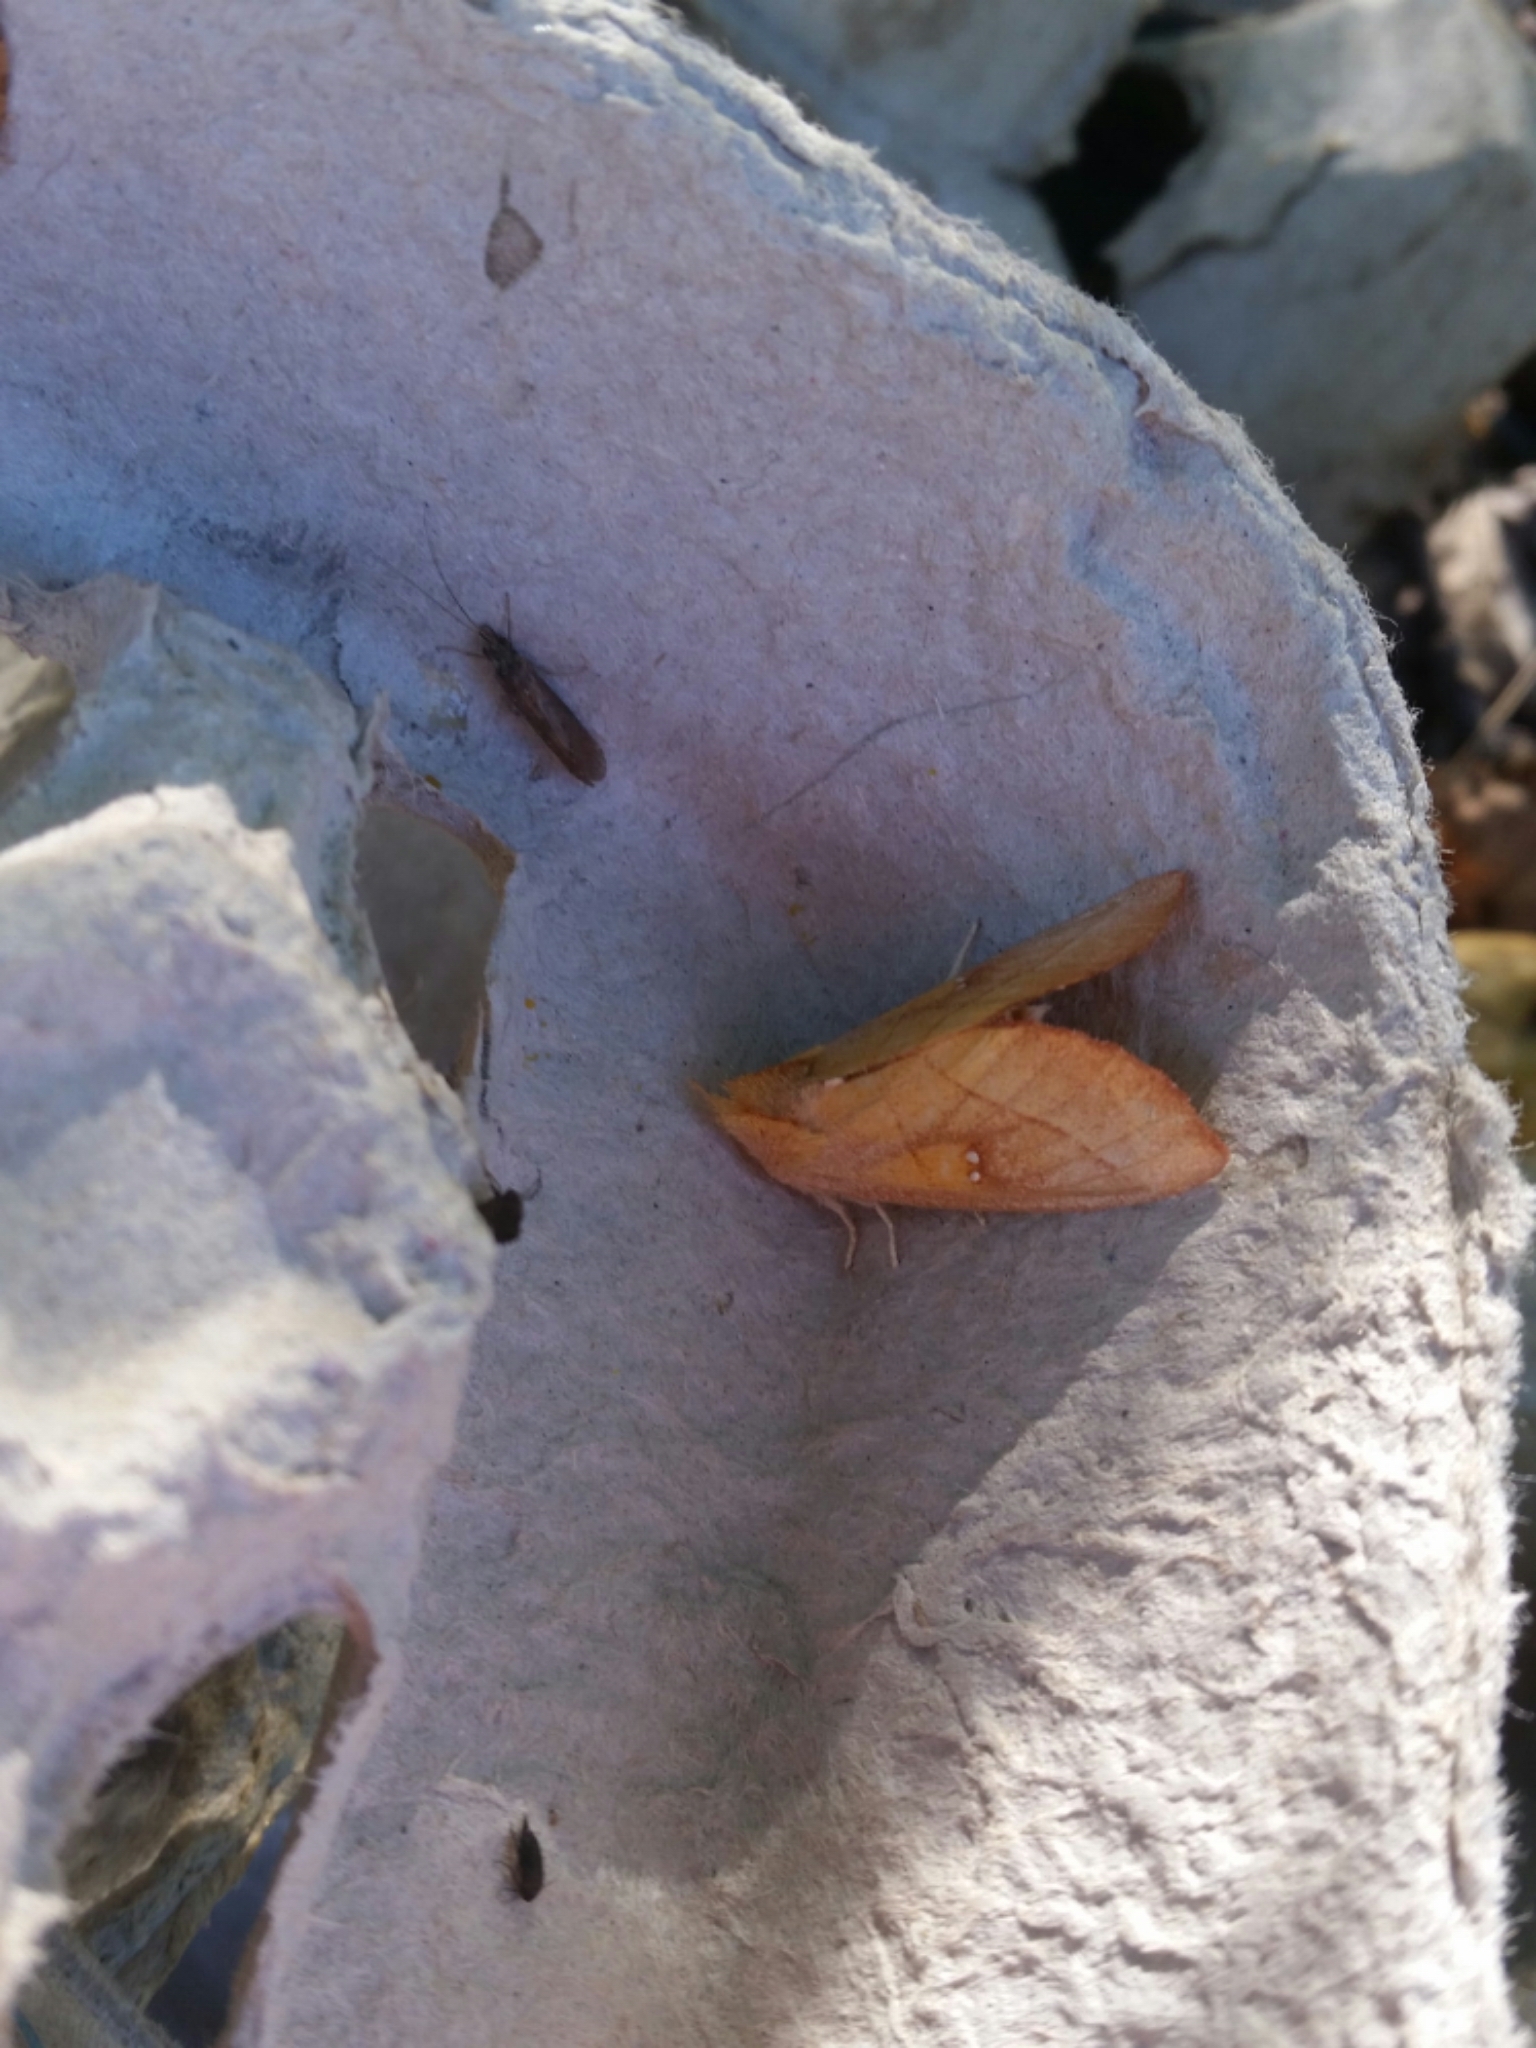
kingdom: Animalia
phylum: Arthropoda
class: Insecta
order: Lepidoptera
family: Notodontidae
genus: Nadata
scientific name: Nadata gibbosa
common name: White-dotted prominent
